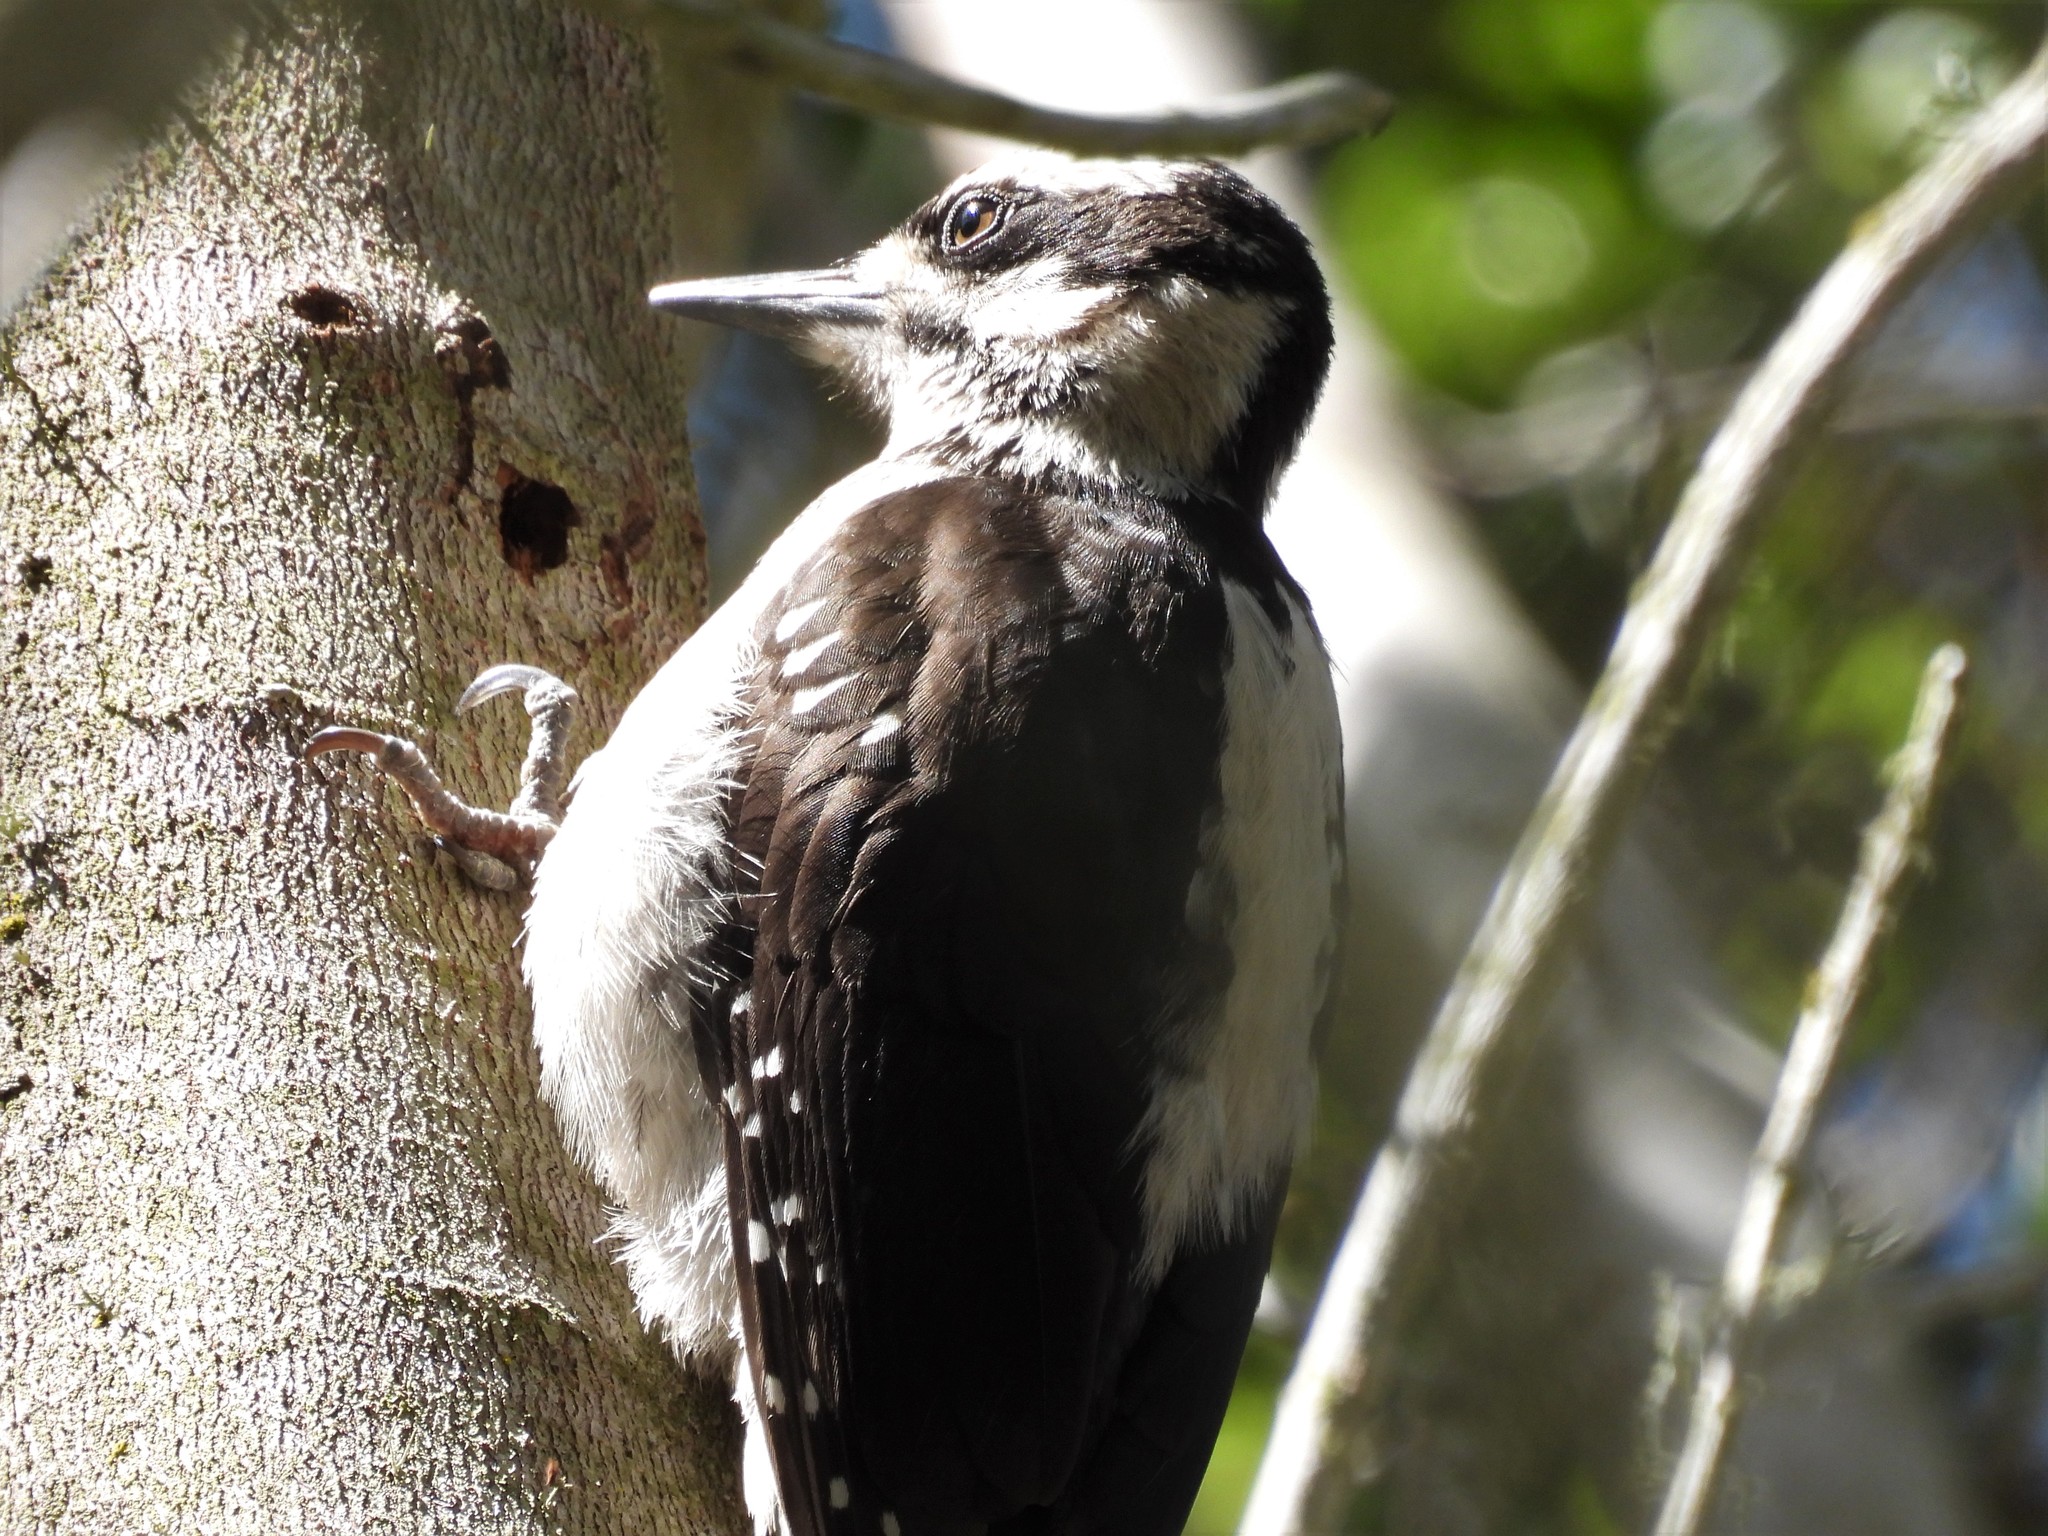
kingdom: Animalia
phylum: Chordata
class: Aves
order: Piciformes
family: Picidae
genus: Leuconotopicus
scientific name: Leuconotopicus villosus
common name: Hairy woodpecker
